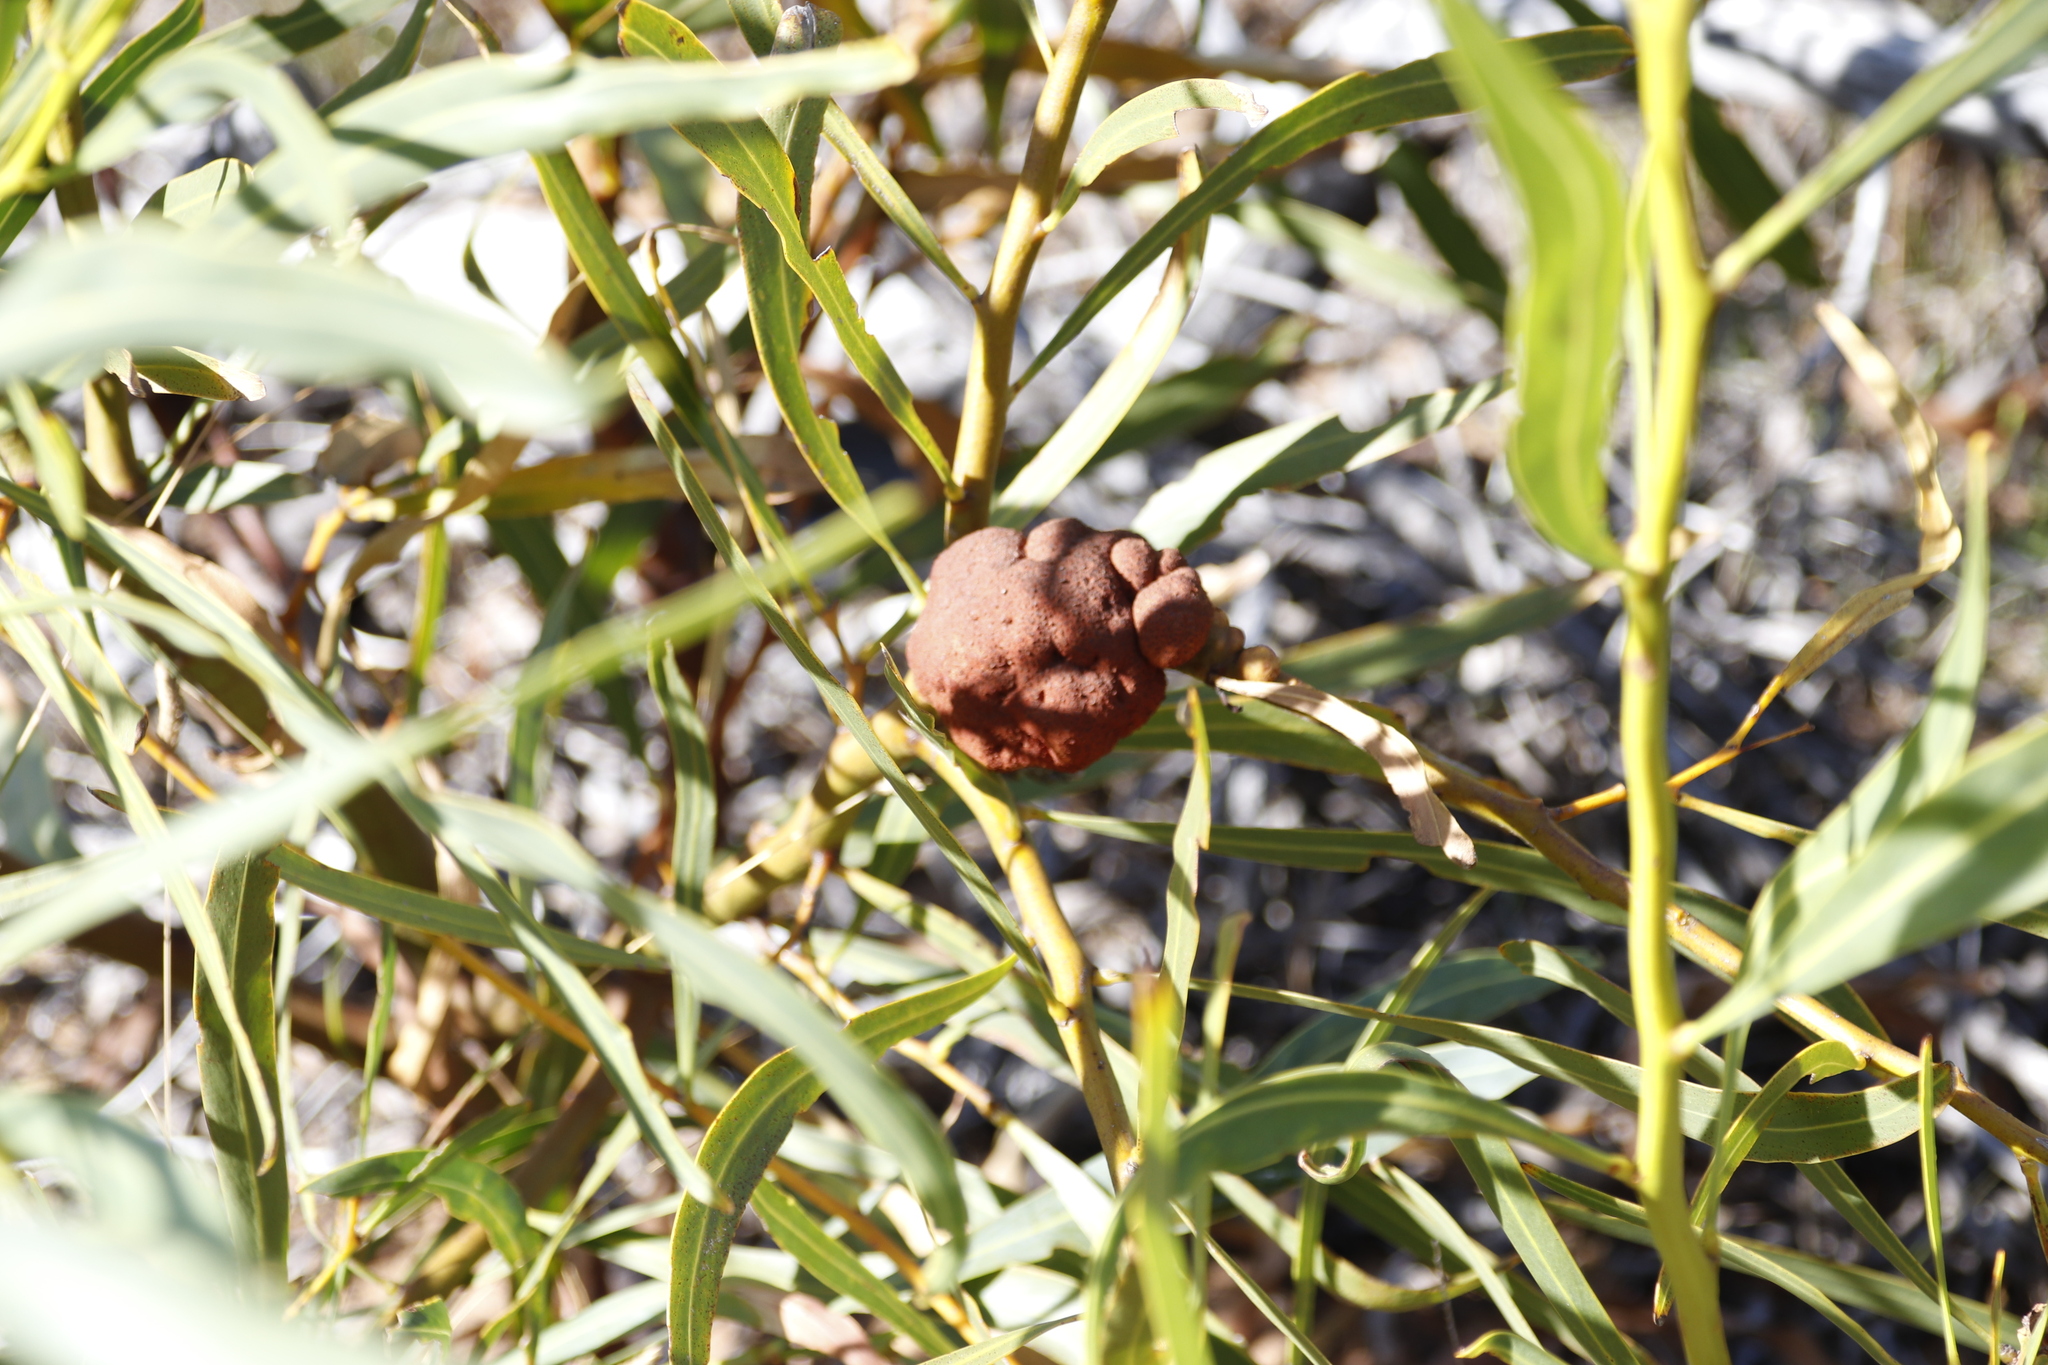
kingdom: Plantae
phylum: Tracheophyta
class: Magnoliopsida
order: Fabales
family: Fabaceae
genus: Acacia
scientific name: Acacia saligna
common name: Orange wattle
